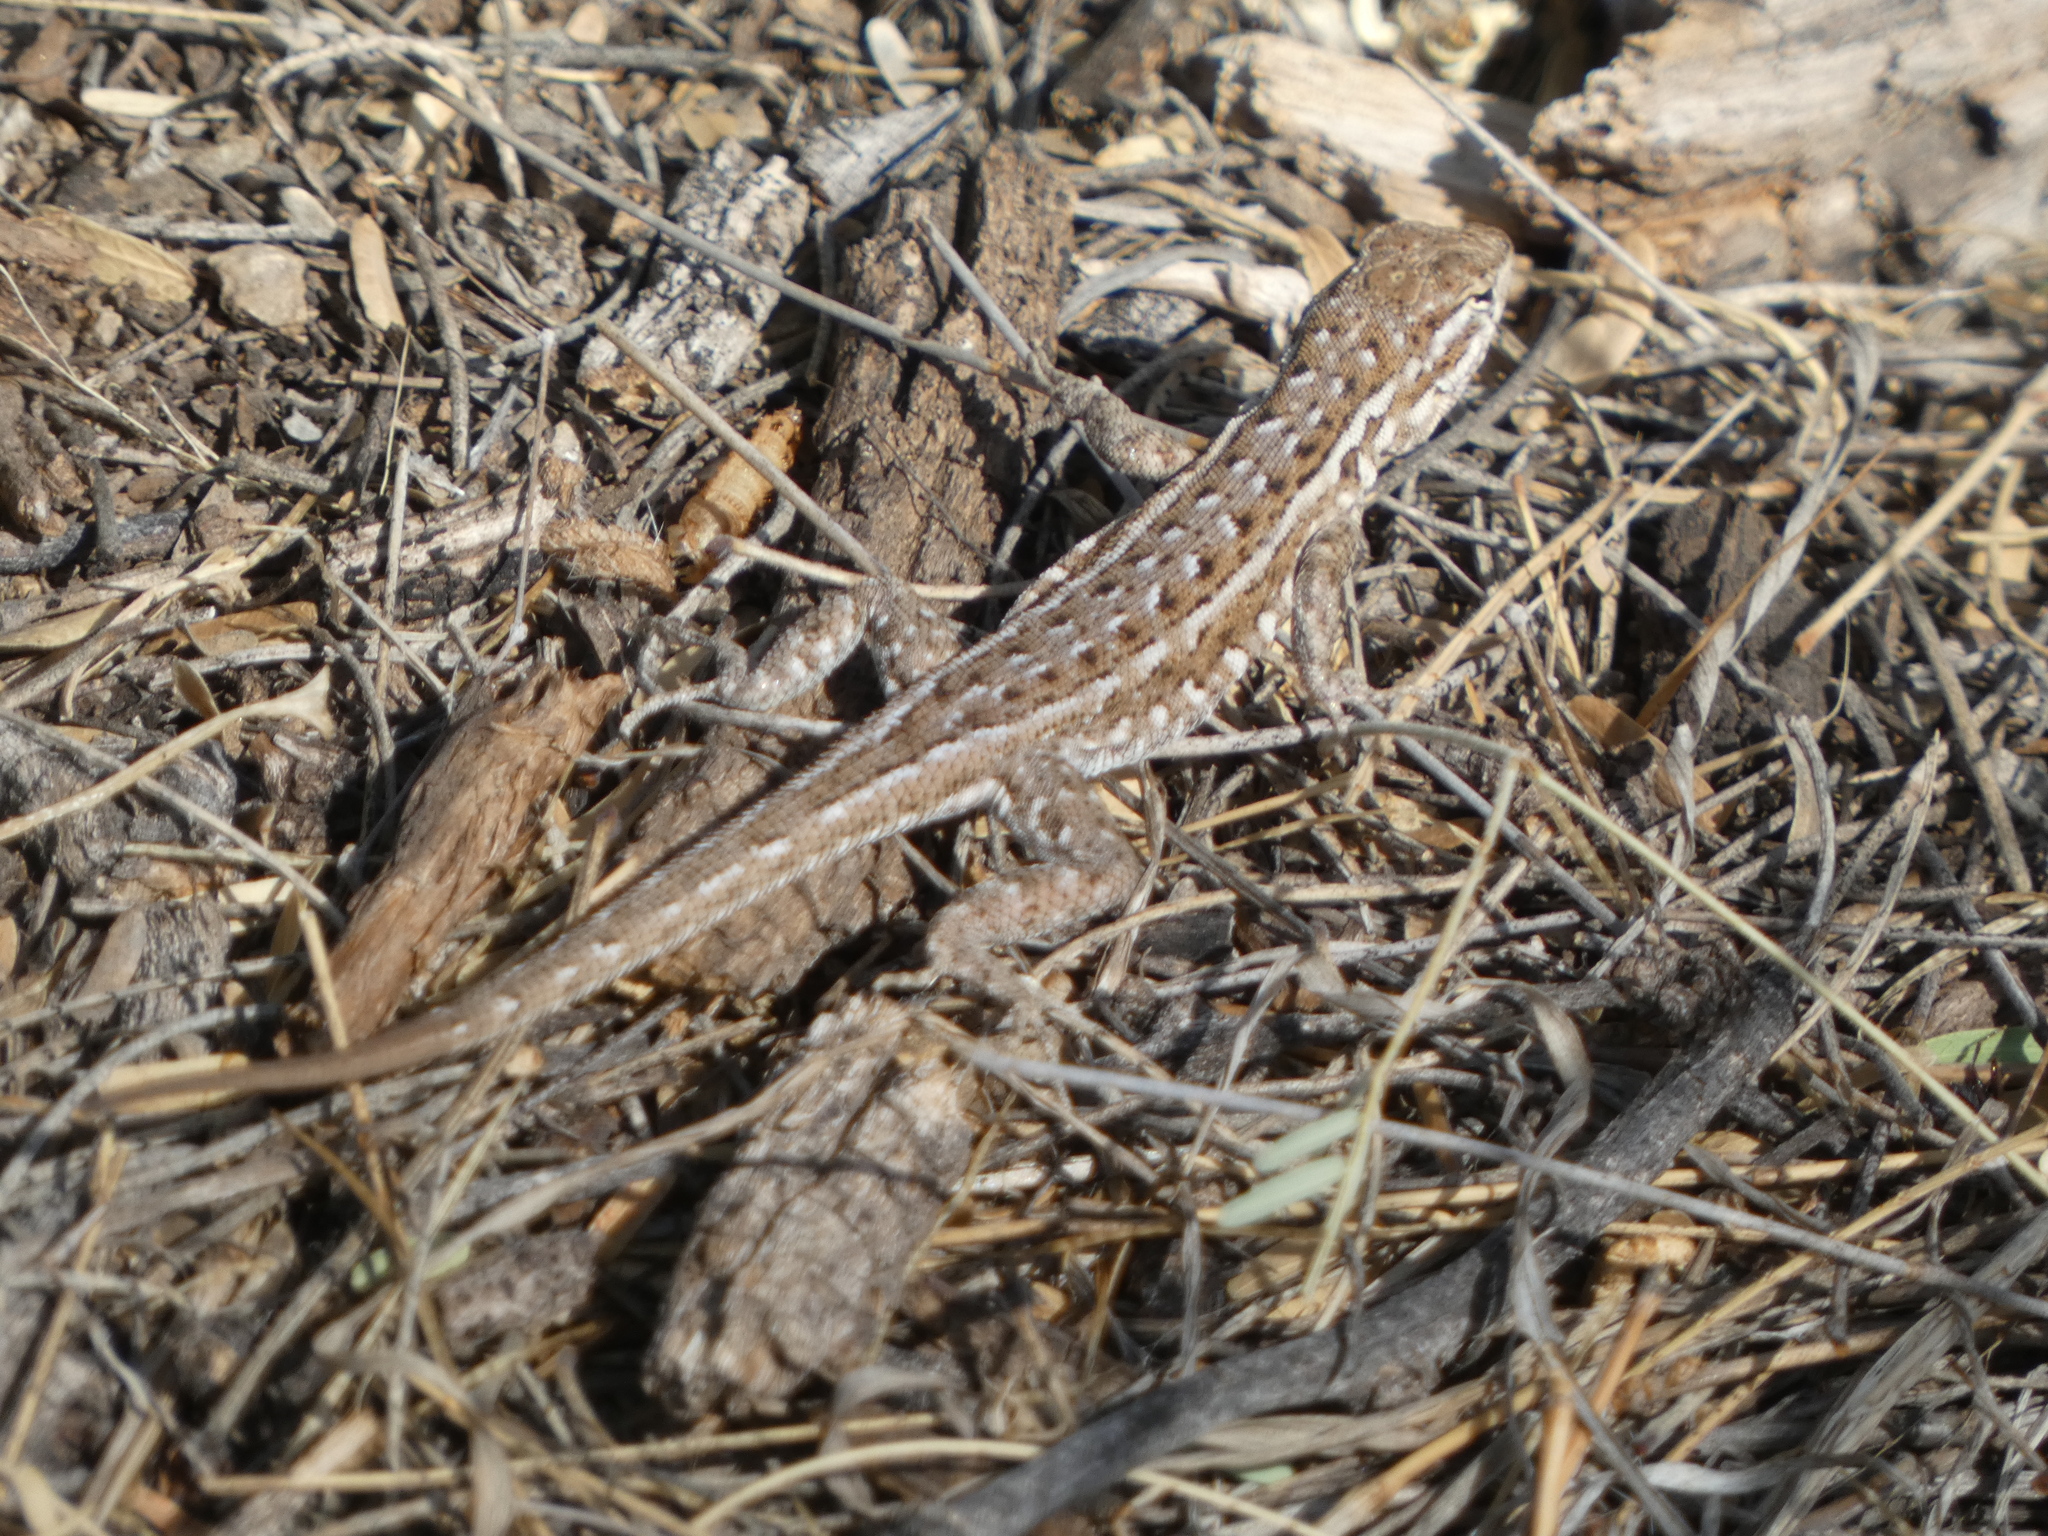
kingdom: Animalia
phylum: Chordata
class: Squamata
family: Phrynosomatidae
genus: Uta
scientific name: Uta stansburiana
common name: Side-blotched lizard
